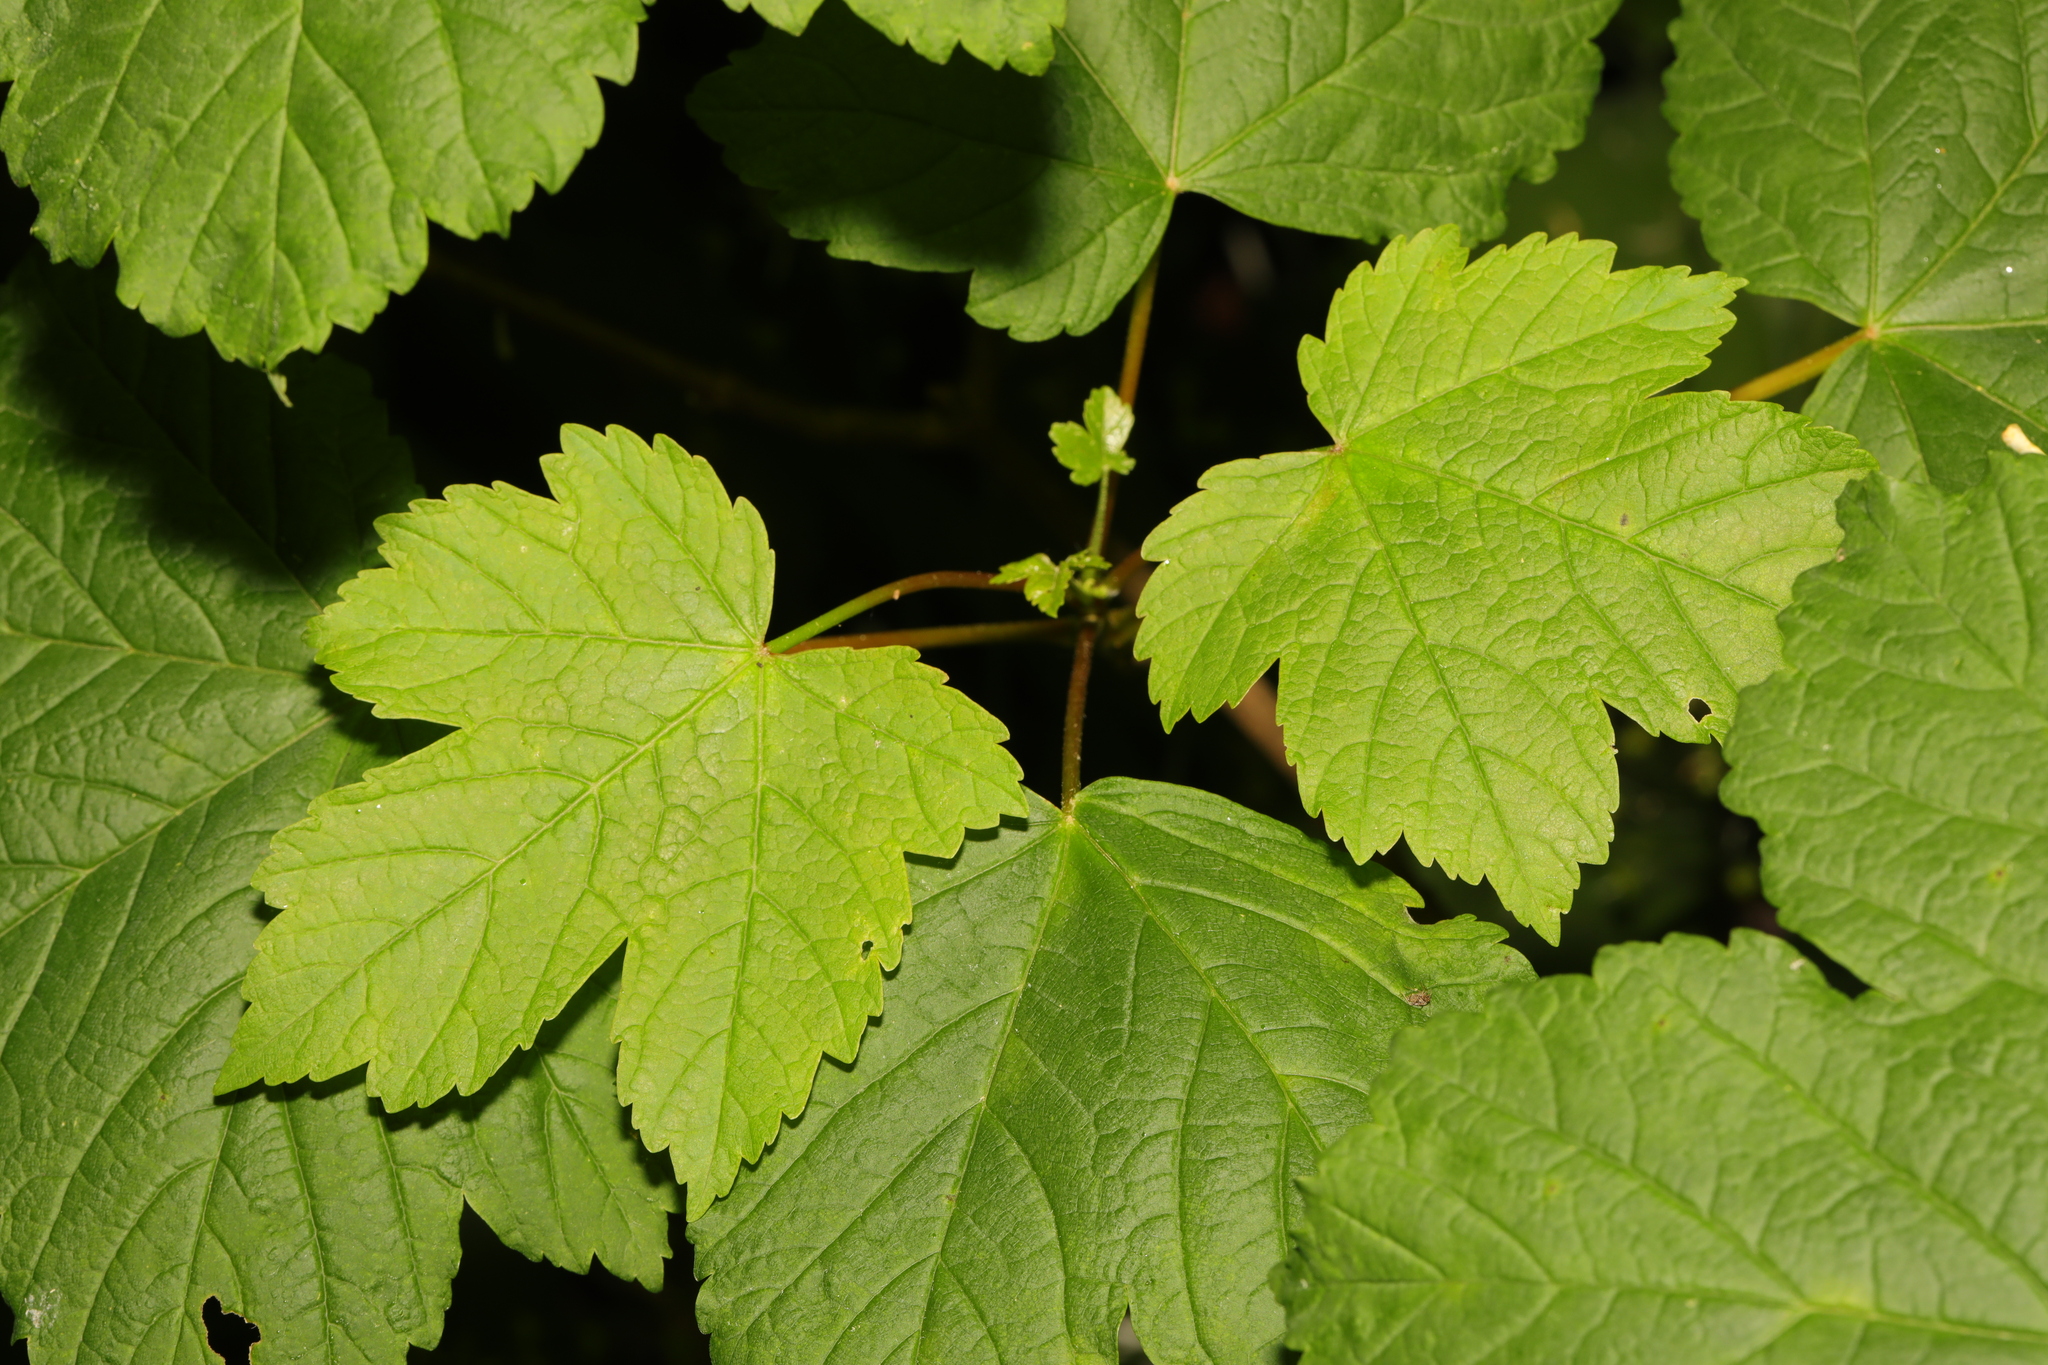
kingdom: Plantae
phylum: Tracheophyta
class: Magnoliopsida
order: Sapindales
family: Sapindaceae
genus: Acer
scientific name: Acer pseudoplatanus
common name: Sycamore
